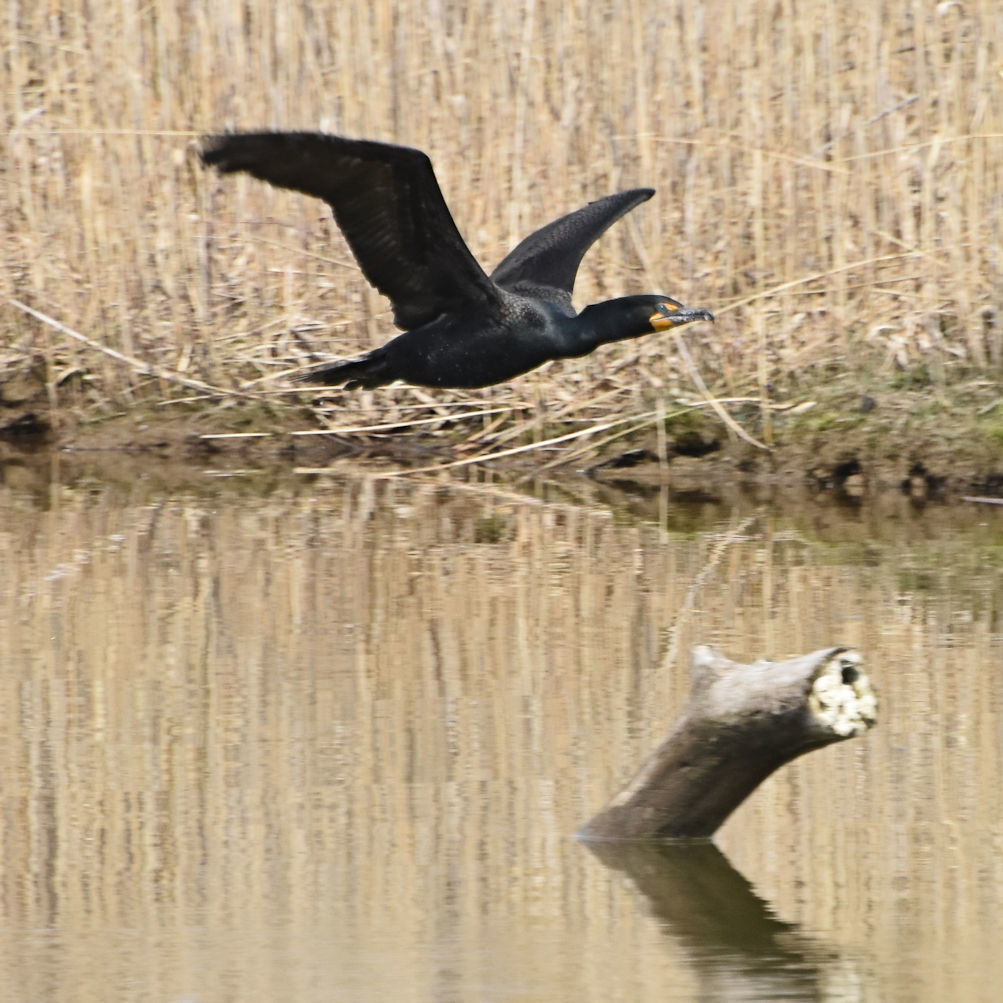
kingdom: Animalia
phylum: Chordata
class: Aves
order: Suliformes
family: Phalacrocoracidae
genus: Phalacrocorax
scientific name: Phalacrocorax auritus
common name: Double-crested cormorant
